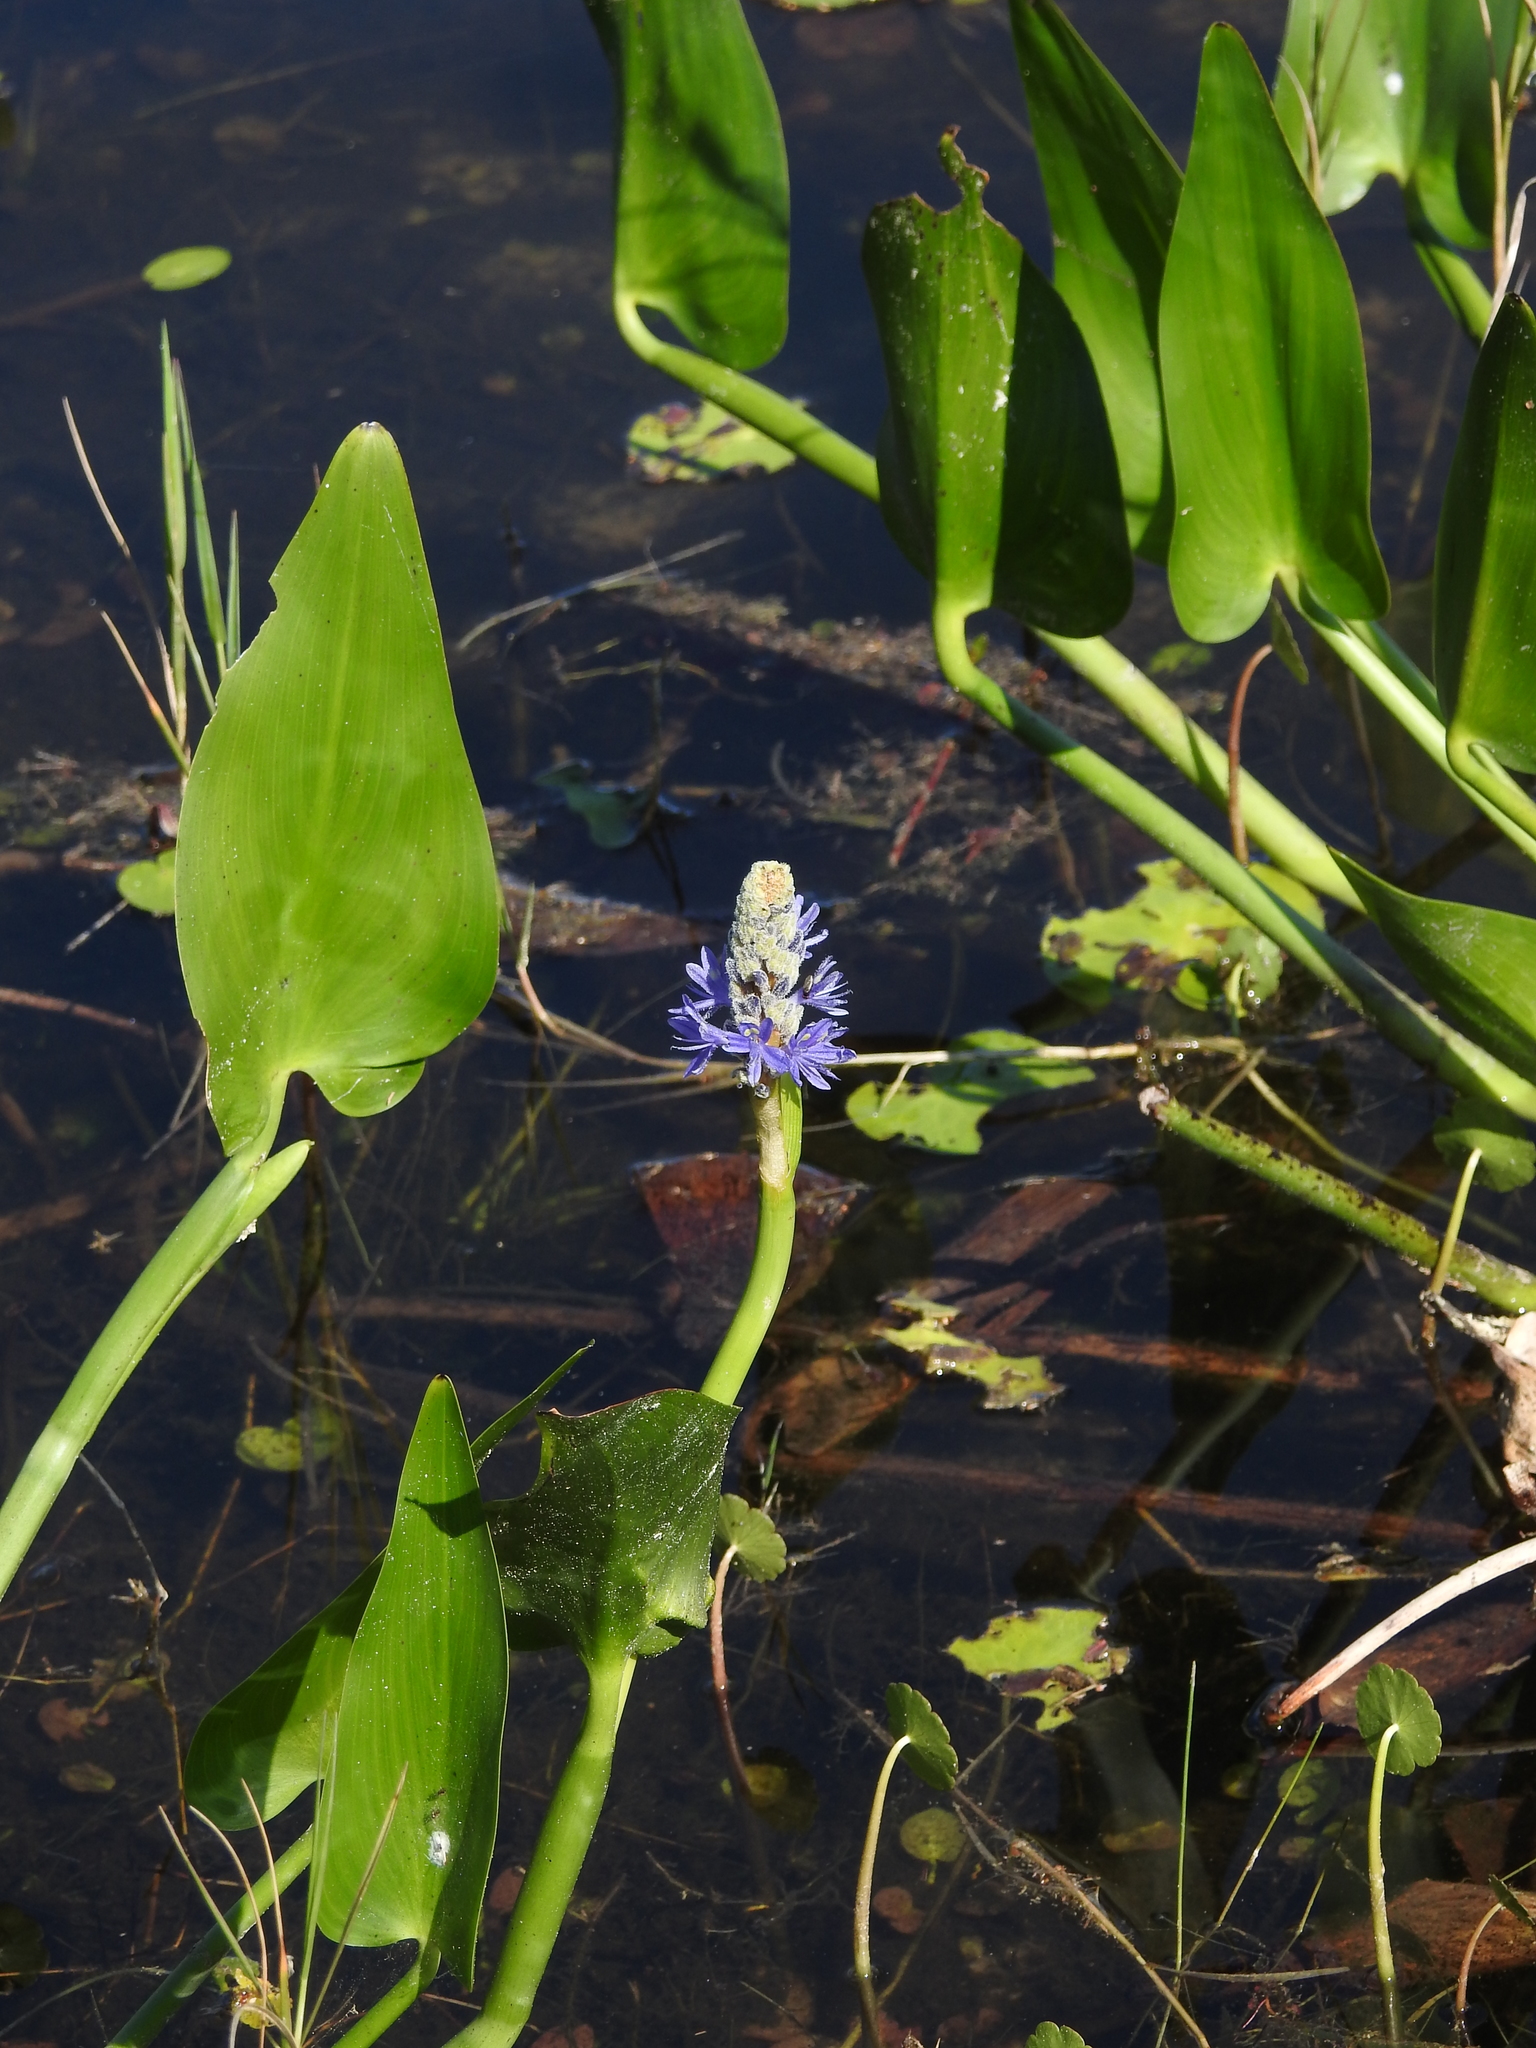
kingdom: Plantae
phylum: Tracheophyta
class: Liliopsida
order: Commelinales
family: Pontederiaceae
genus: Pontederia
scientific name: Pontederia cordata
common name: Pickerelweed
